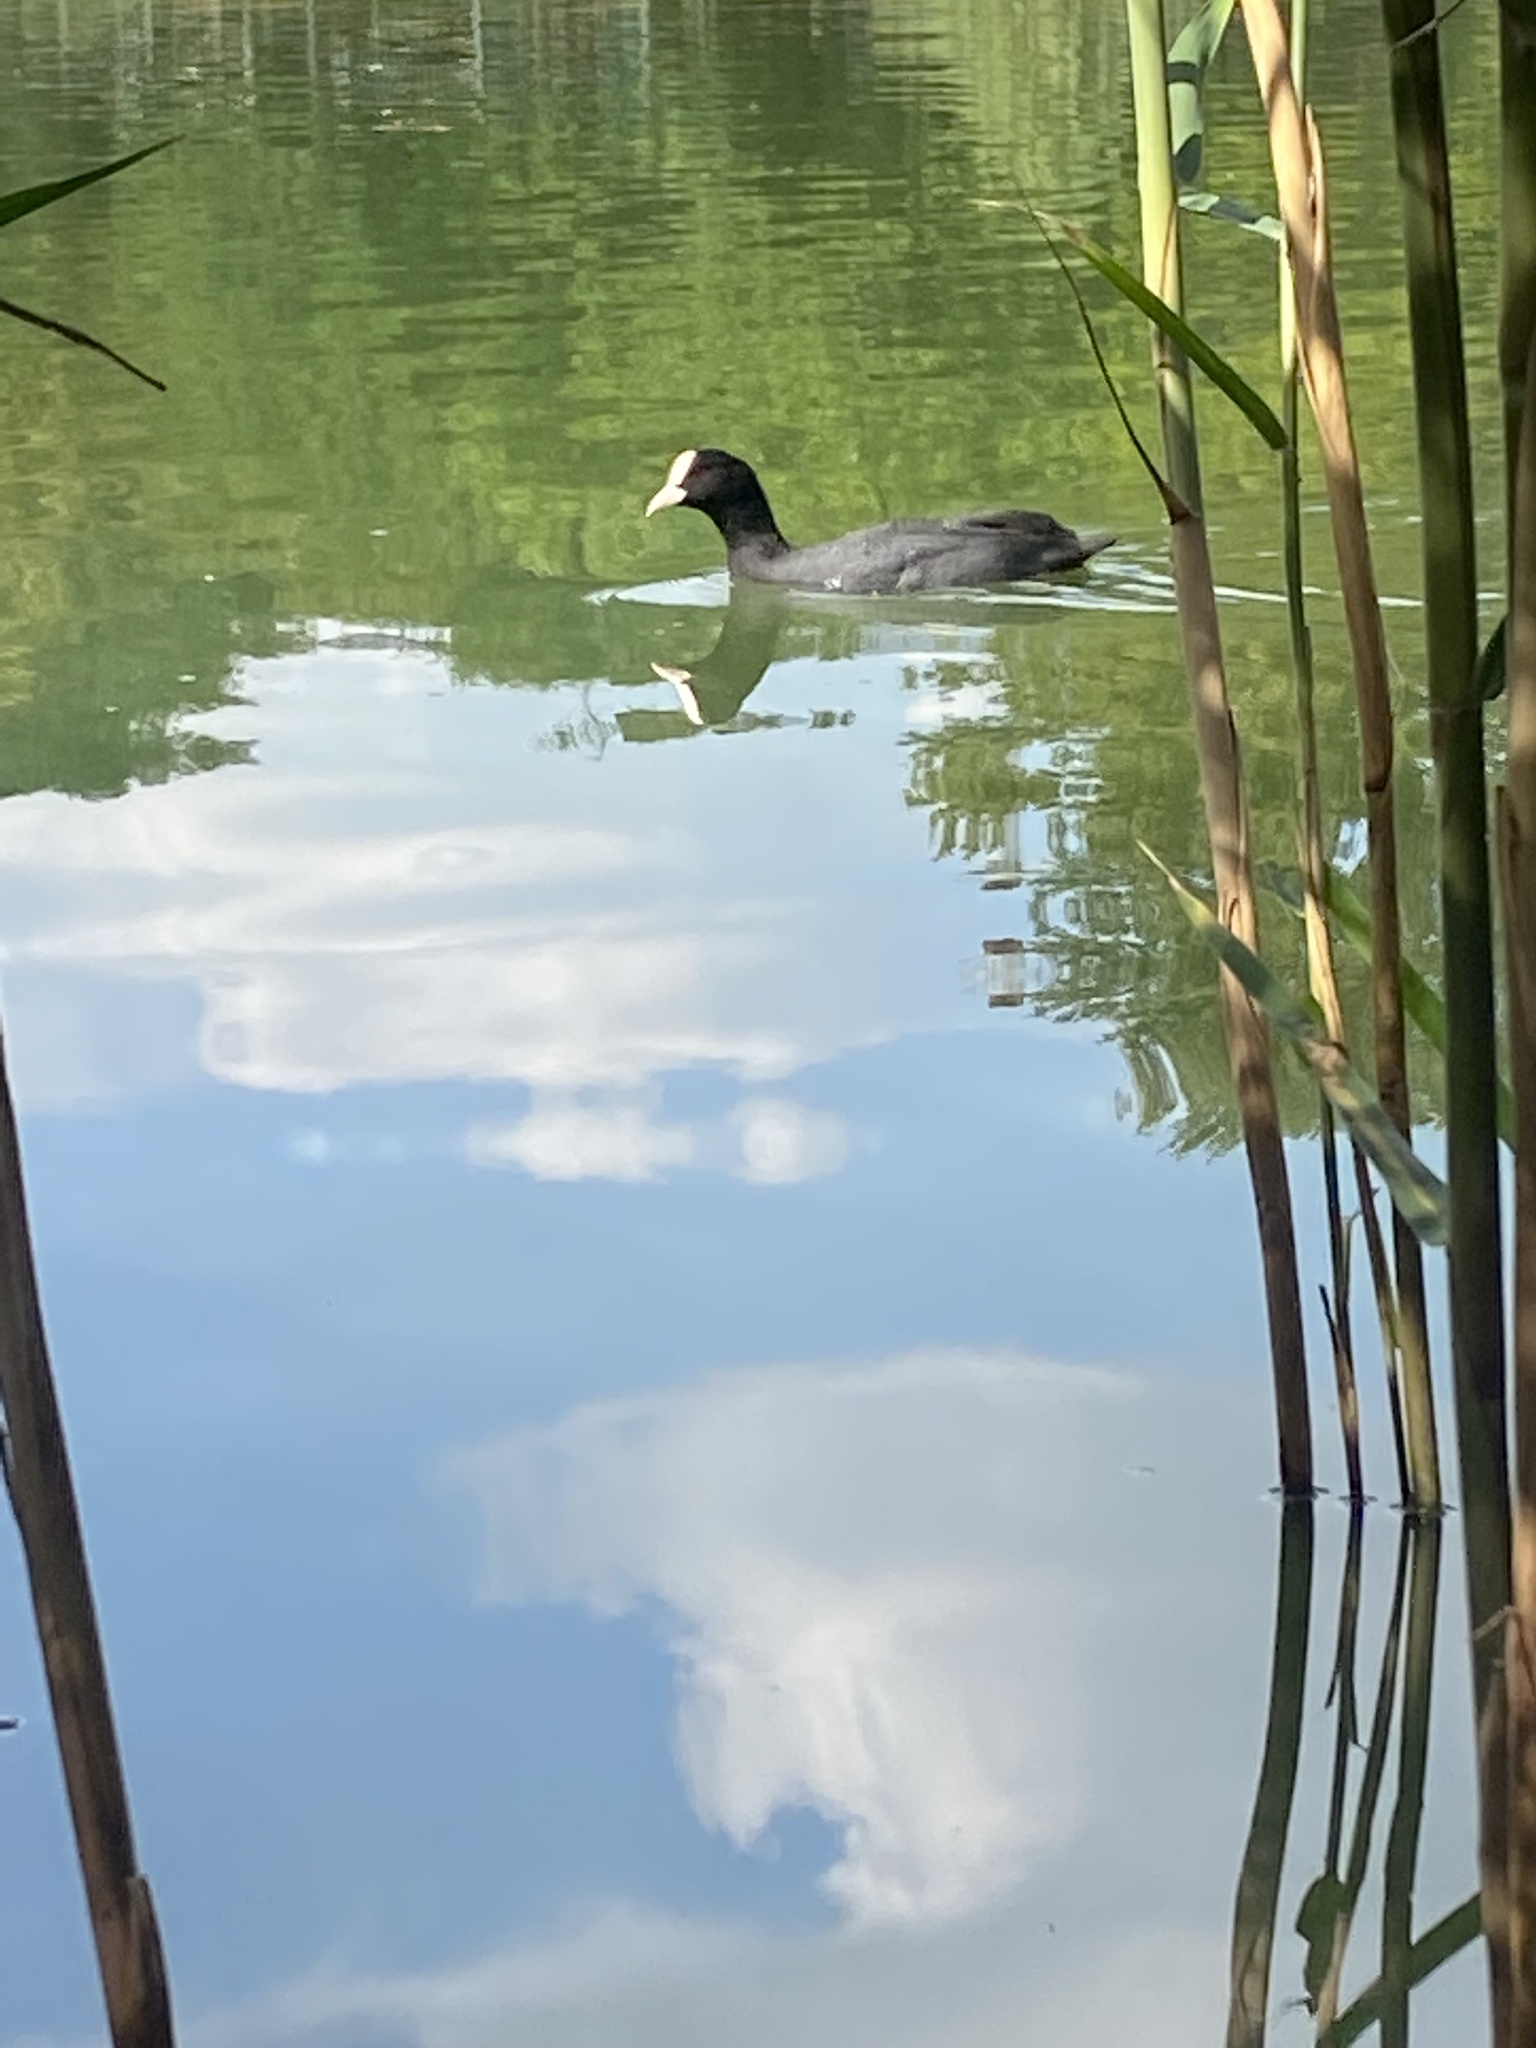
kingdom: Animalia
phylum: Chordata
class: Aves
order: Gruiformes
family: Rallidae
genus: Fulica
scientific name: Fulica atra
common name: Eurasian coot
